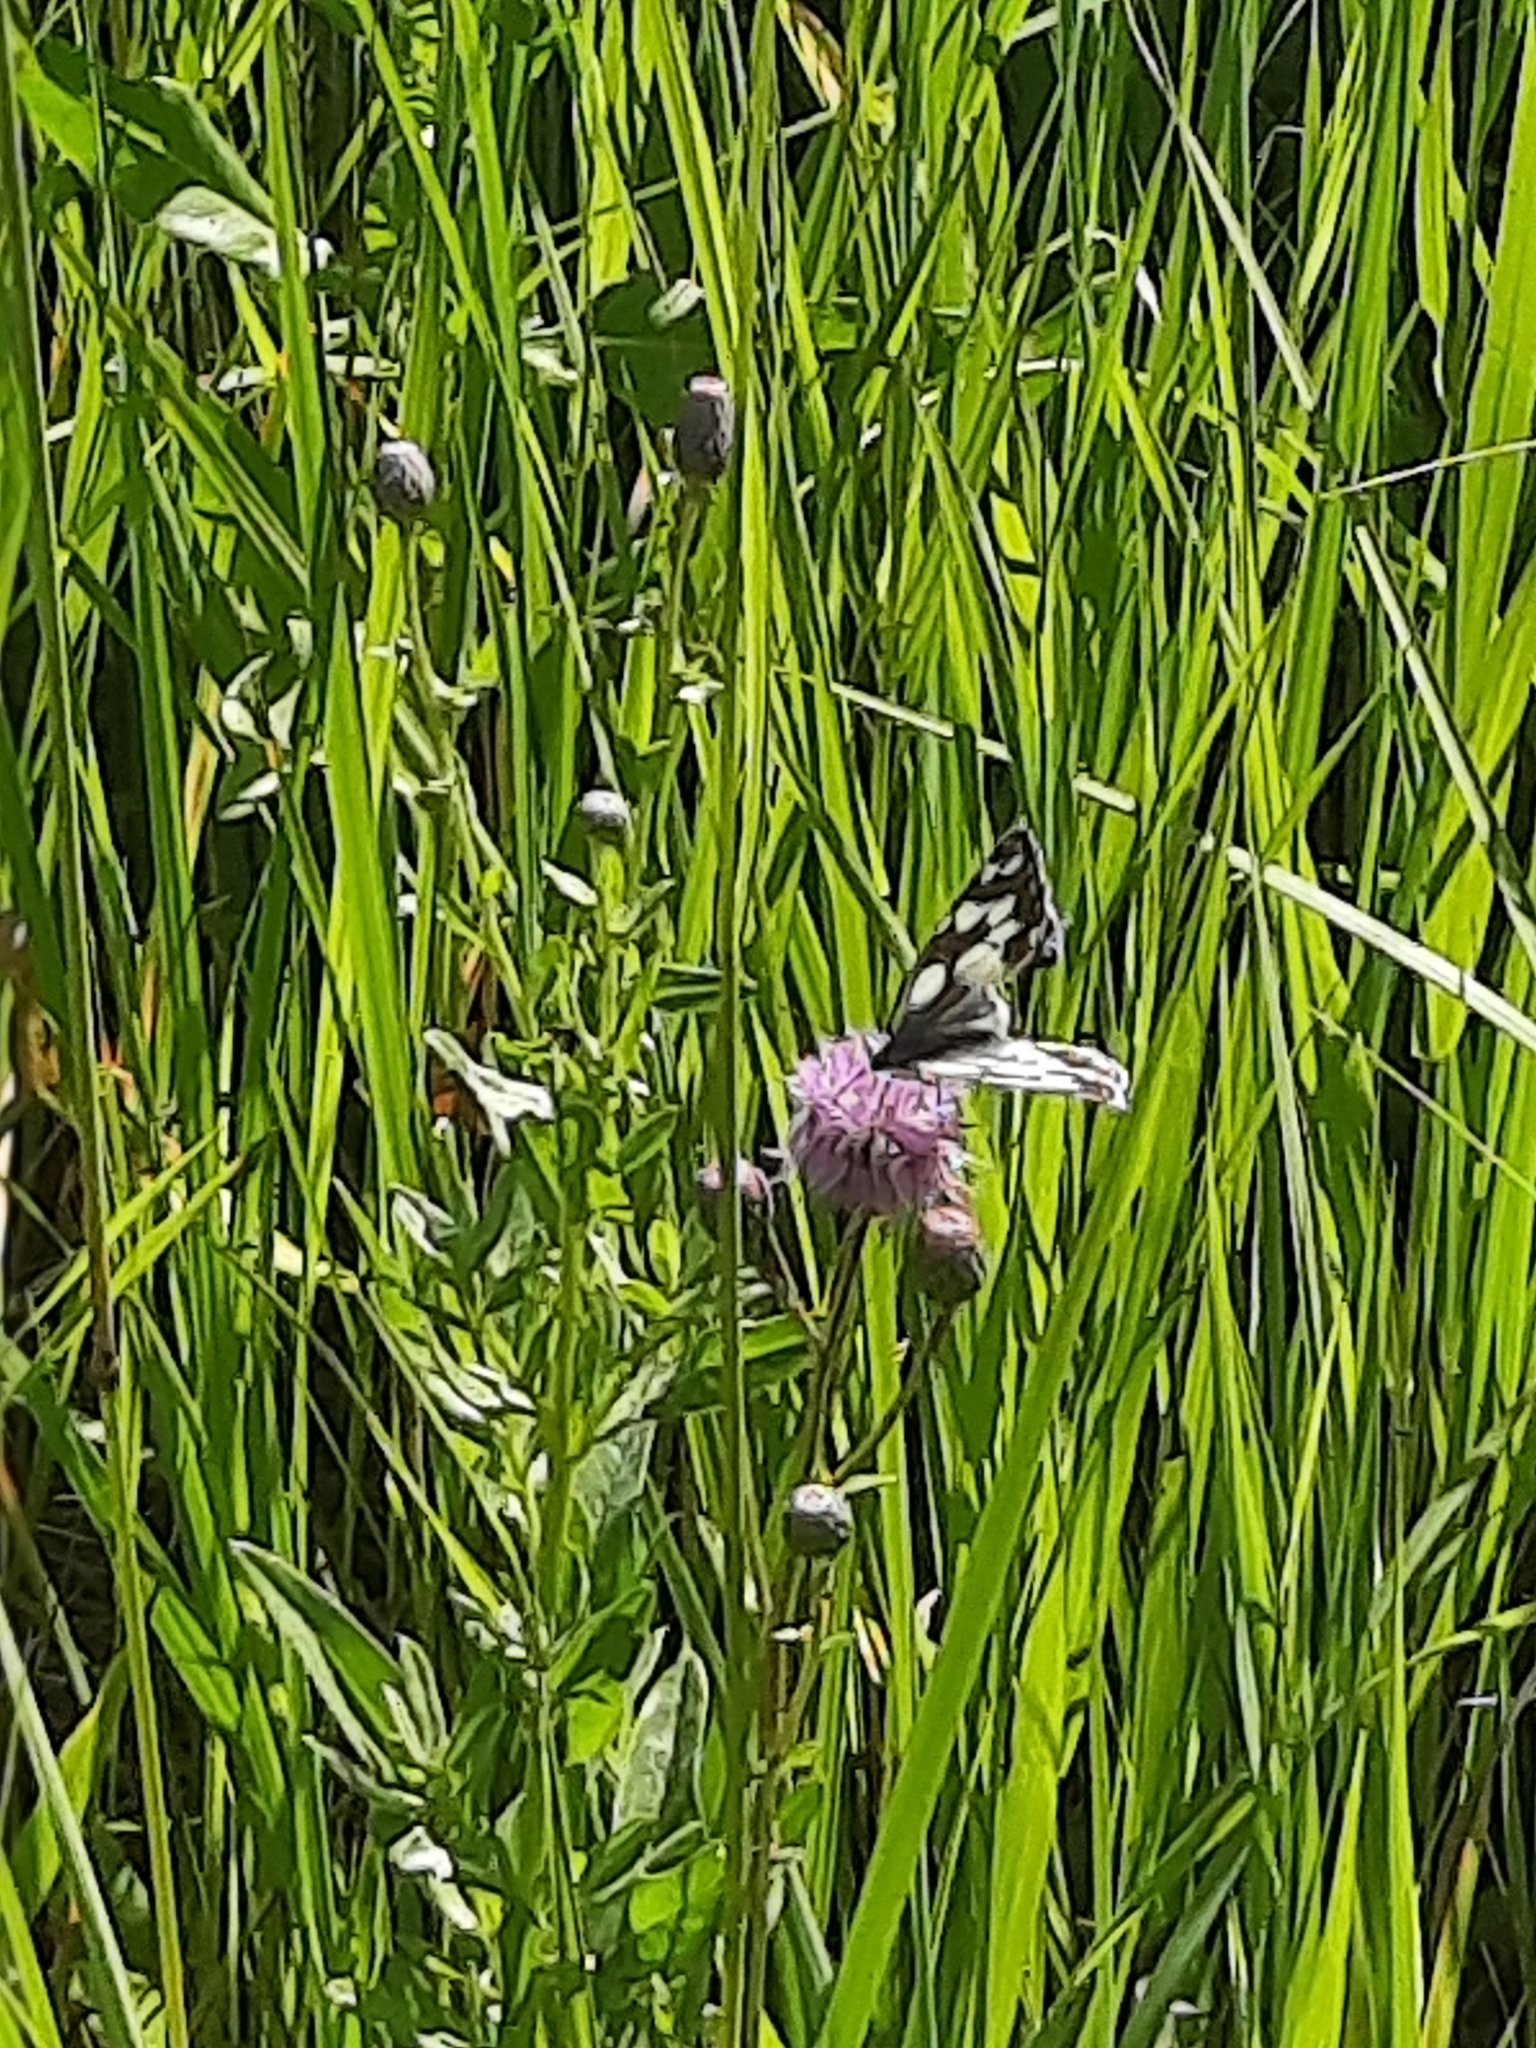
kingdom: Animalia
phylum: Arthropoda
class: Insecta
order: Lepidoptera
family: Nymphalidae
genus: Melanargia
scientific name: Melanargia galathea
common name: Marbled white
